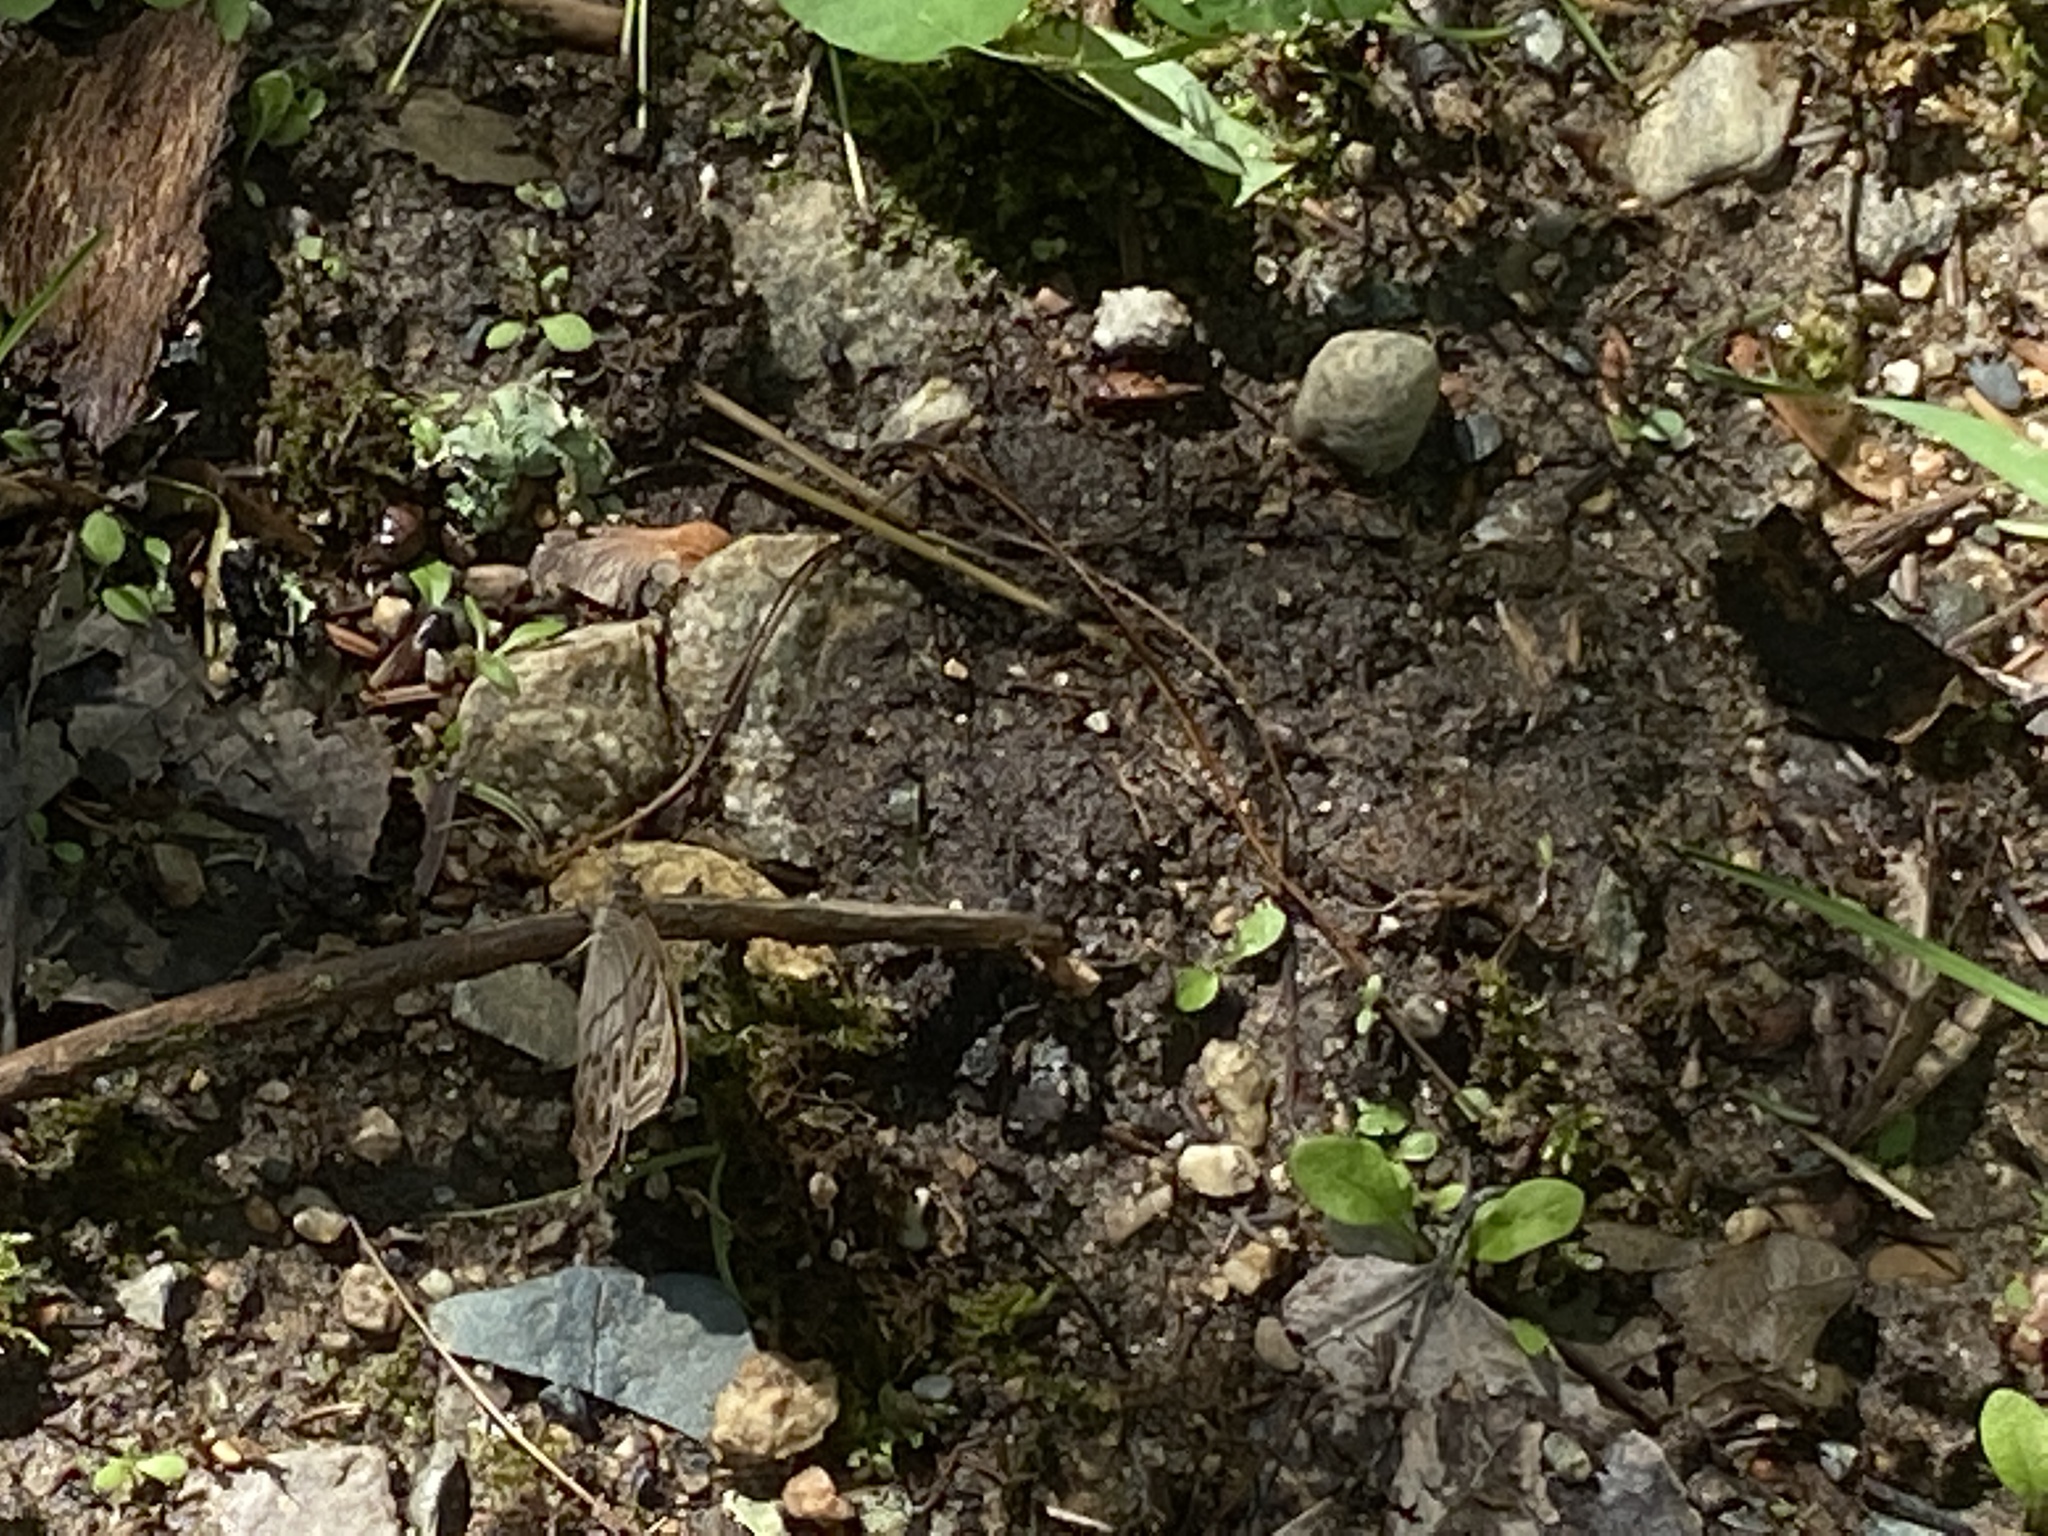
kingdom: Animalia
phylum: Arthropoda
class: Insecta
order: Lepidoptera
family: Nymphalidae
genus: Lethe
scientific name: Lethe anthedon
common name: Northern pearly-eye
